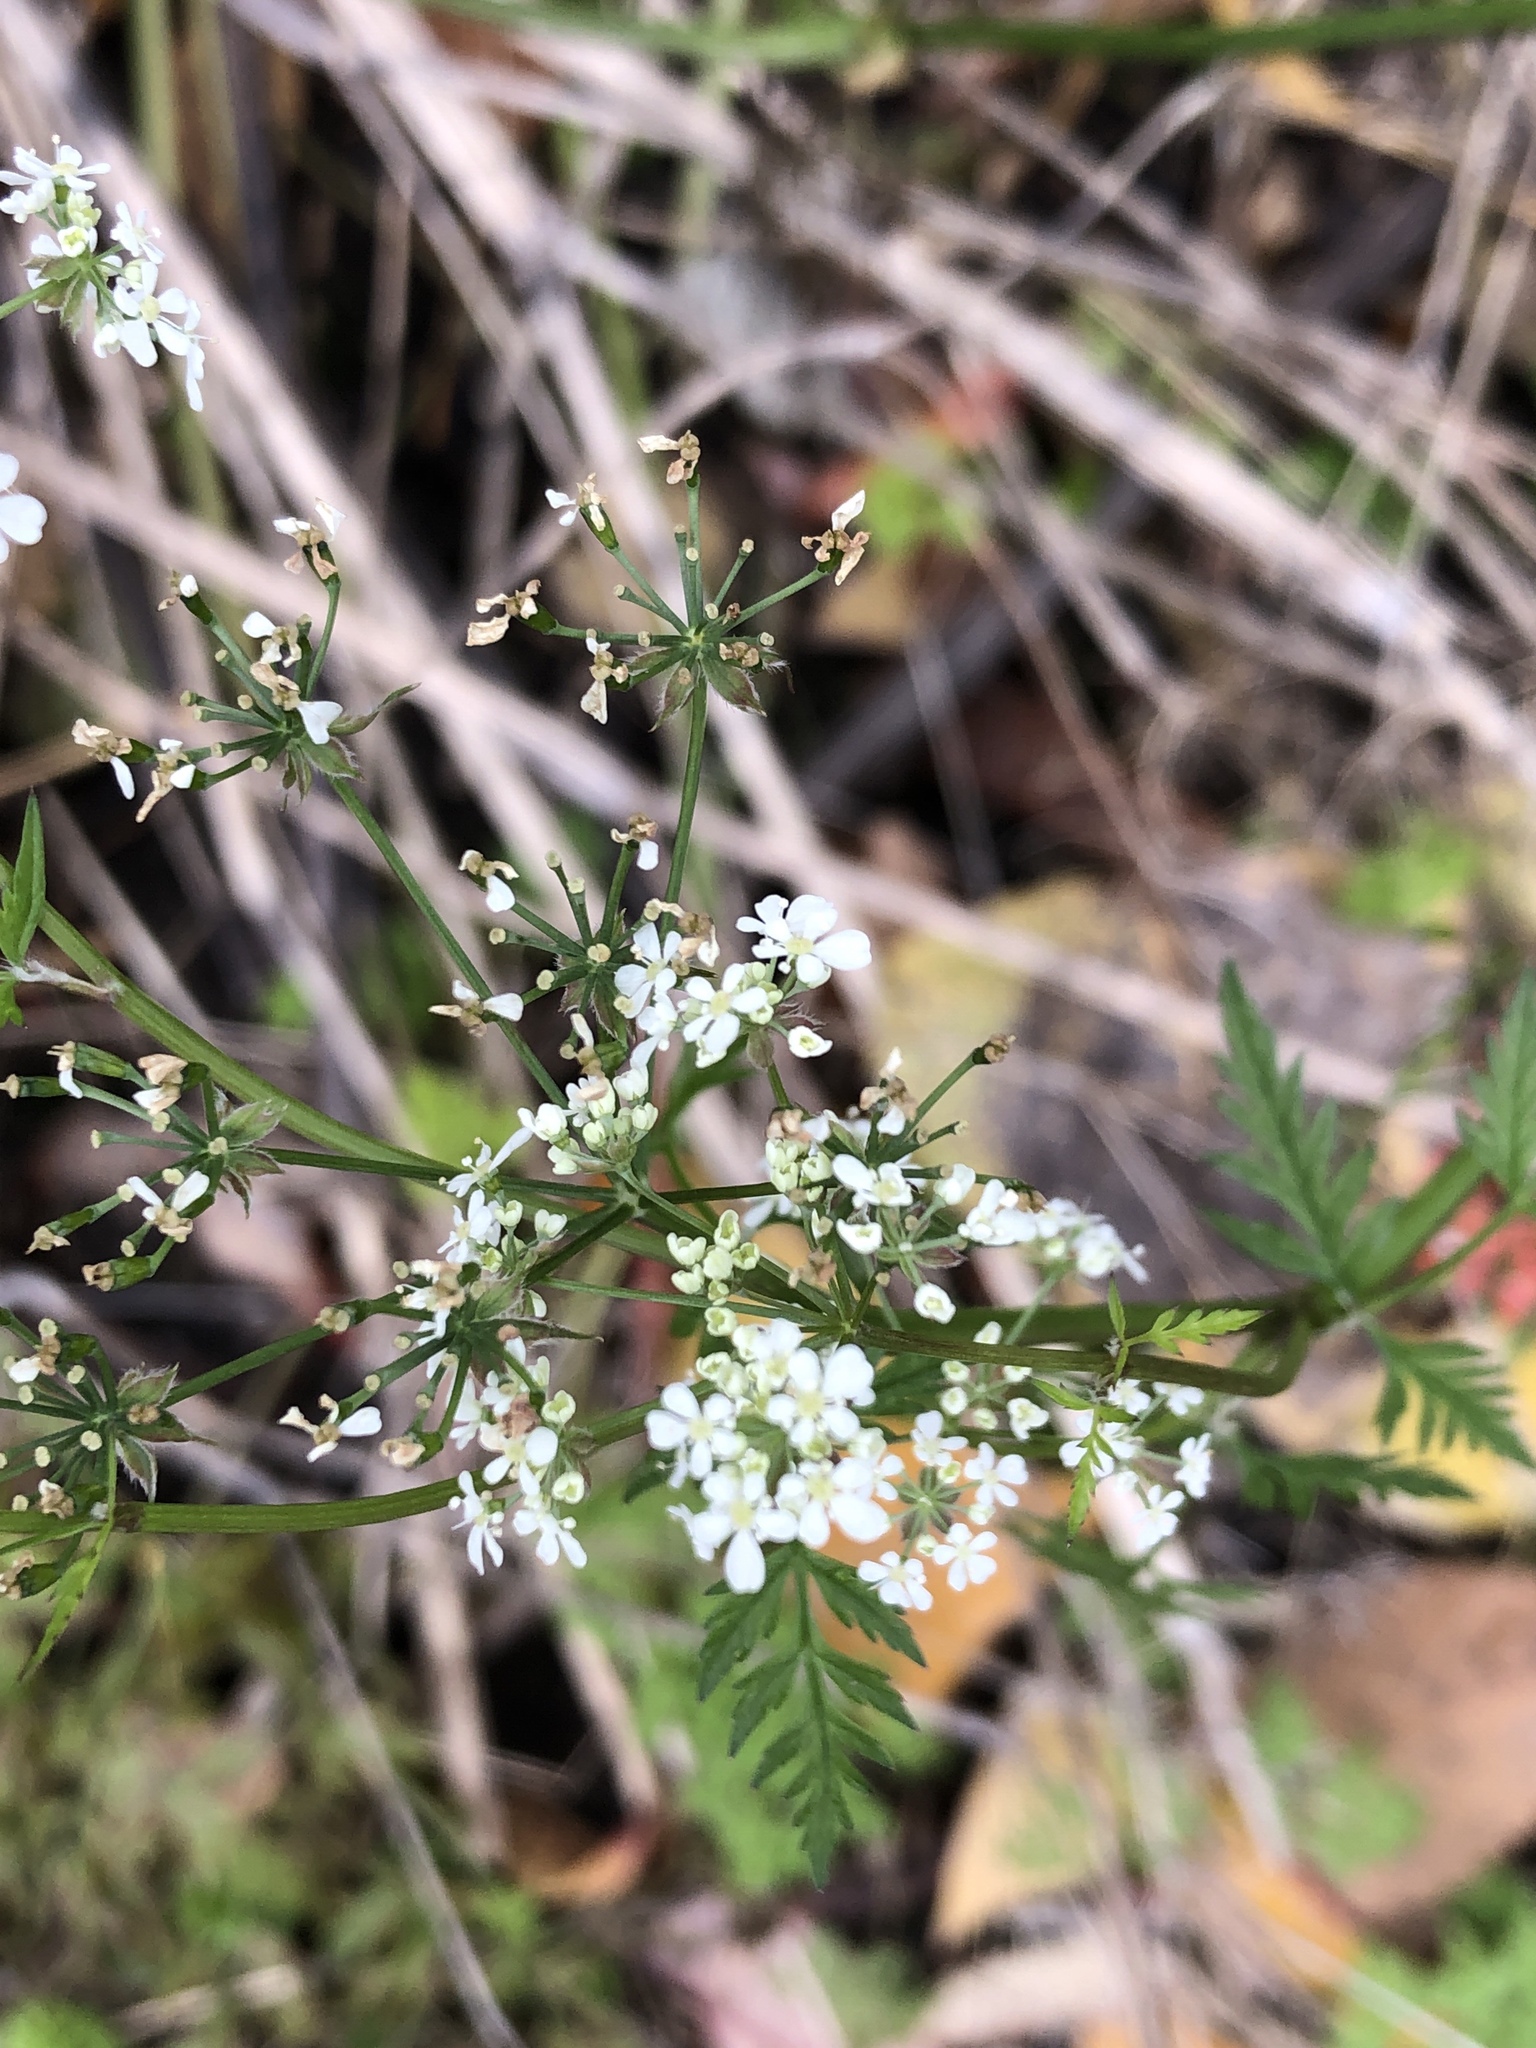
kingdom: Plantae
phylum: Tracheophyta
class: Magnoliopsida
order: Apiales
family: Apiaceae
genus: Anthriscus
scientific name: Anthriscus sylvestris
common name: Cow parsley
